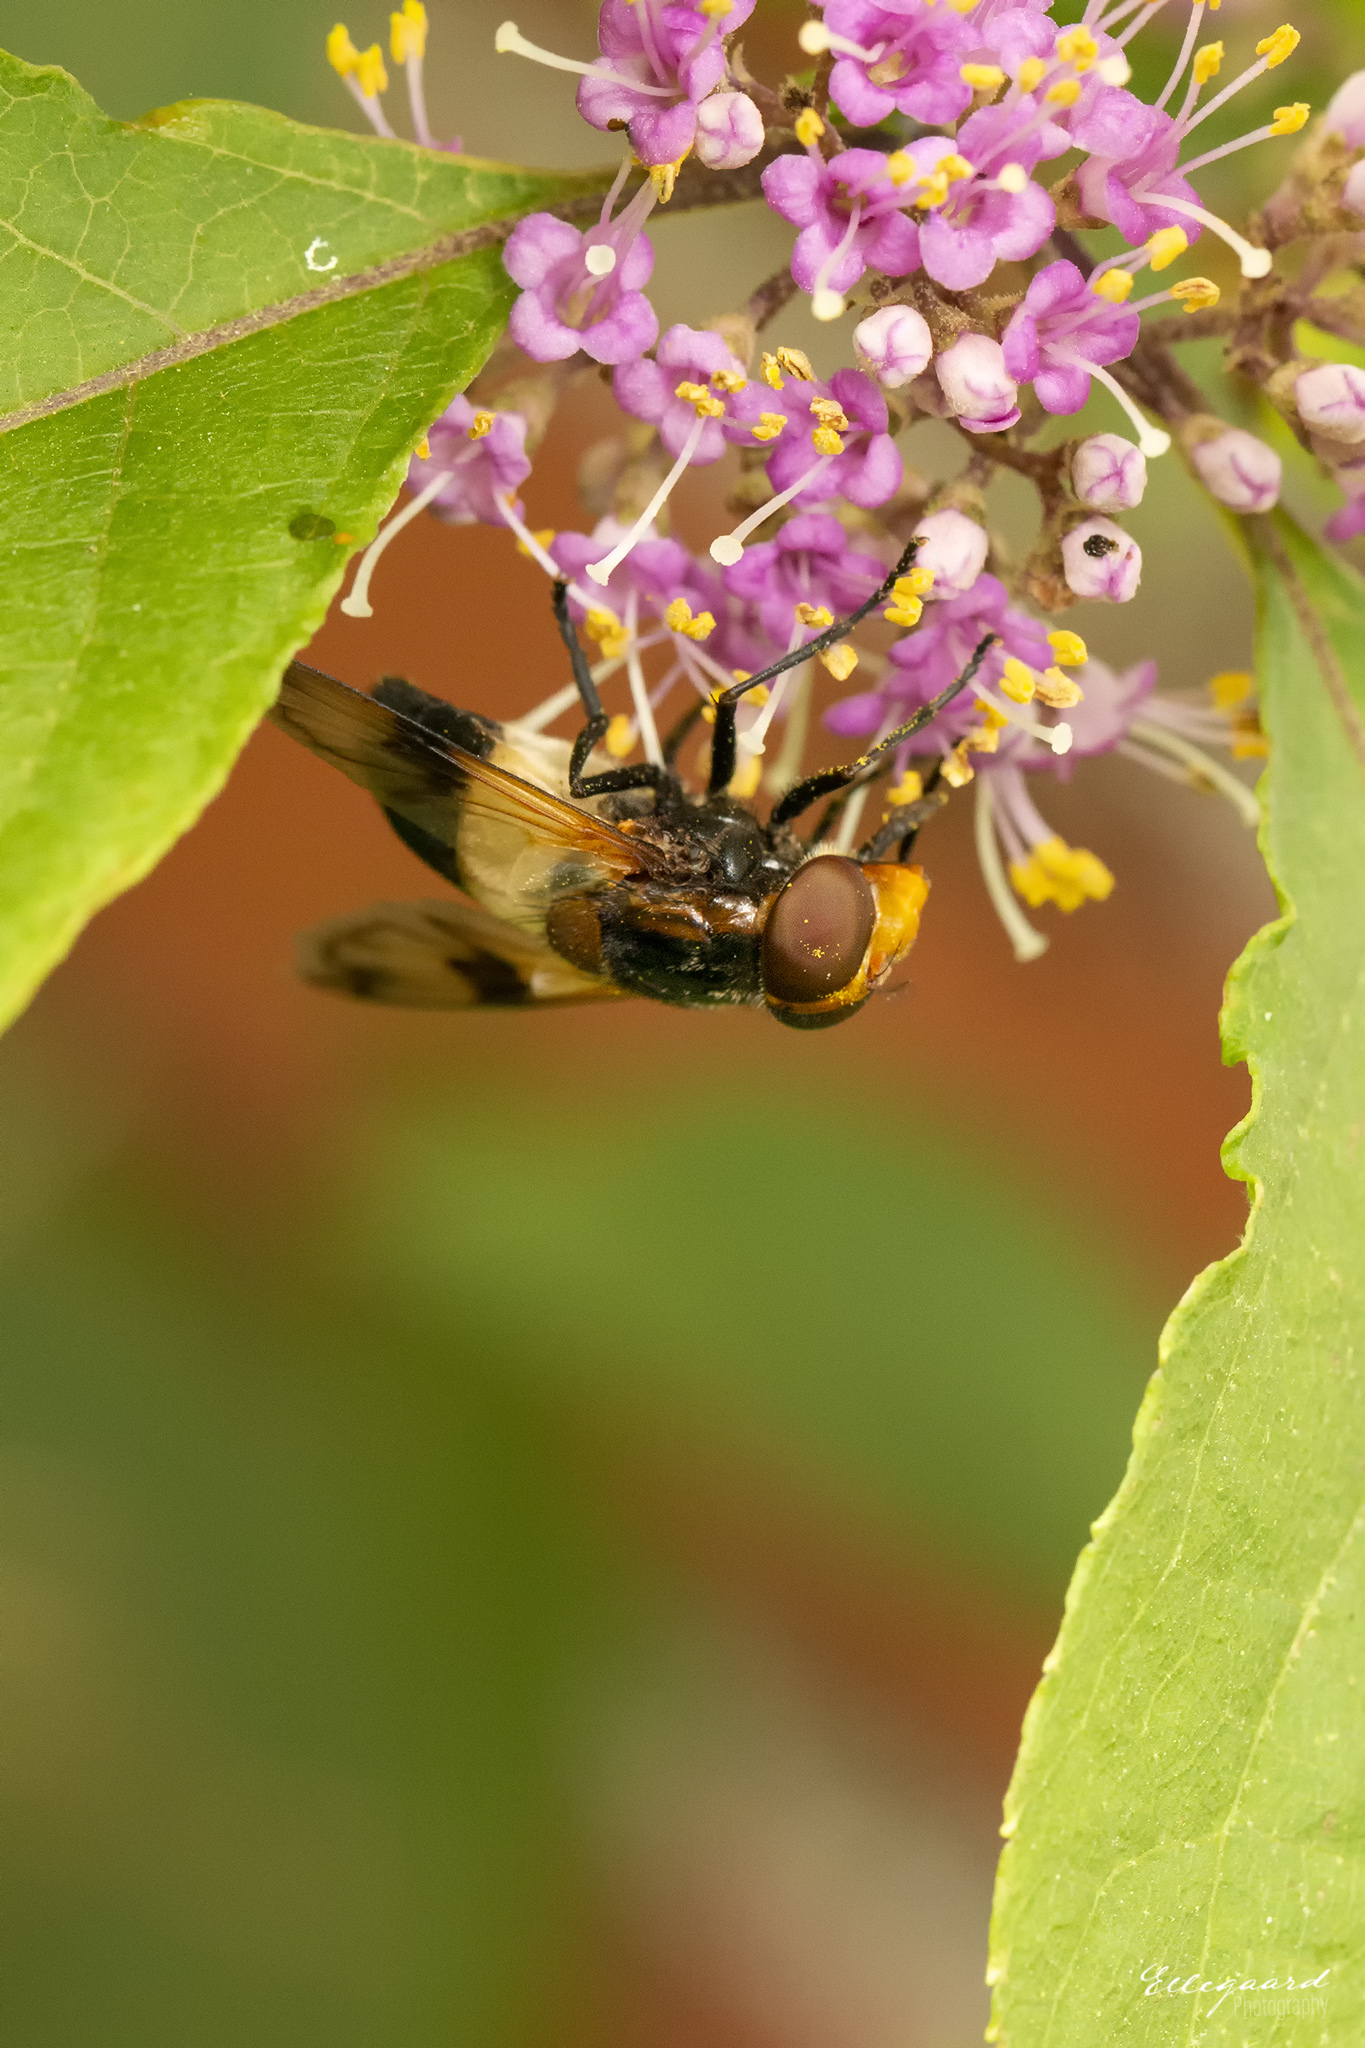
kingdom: Animalia
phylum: Arthropoda
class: Insecta
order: Diptera
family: Syrphidae
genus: Volucella
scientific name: Volucella pellucens
